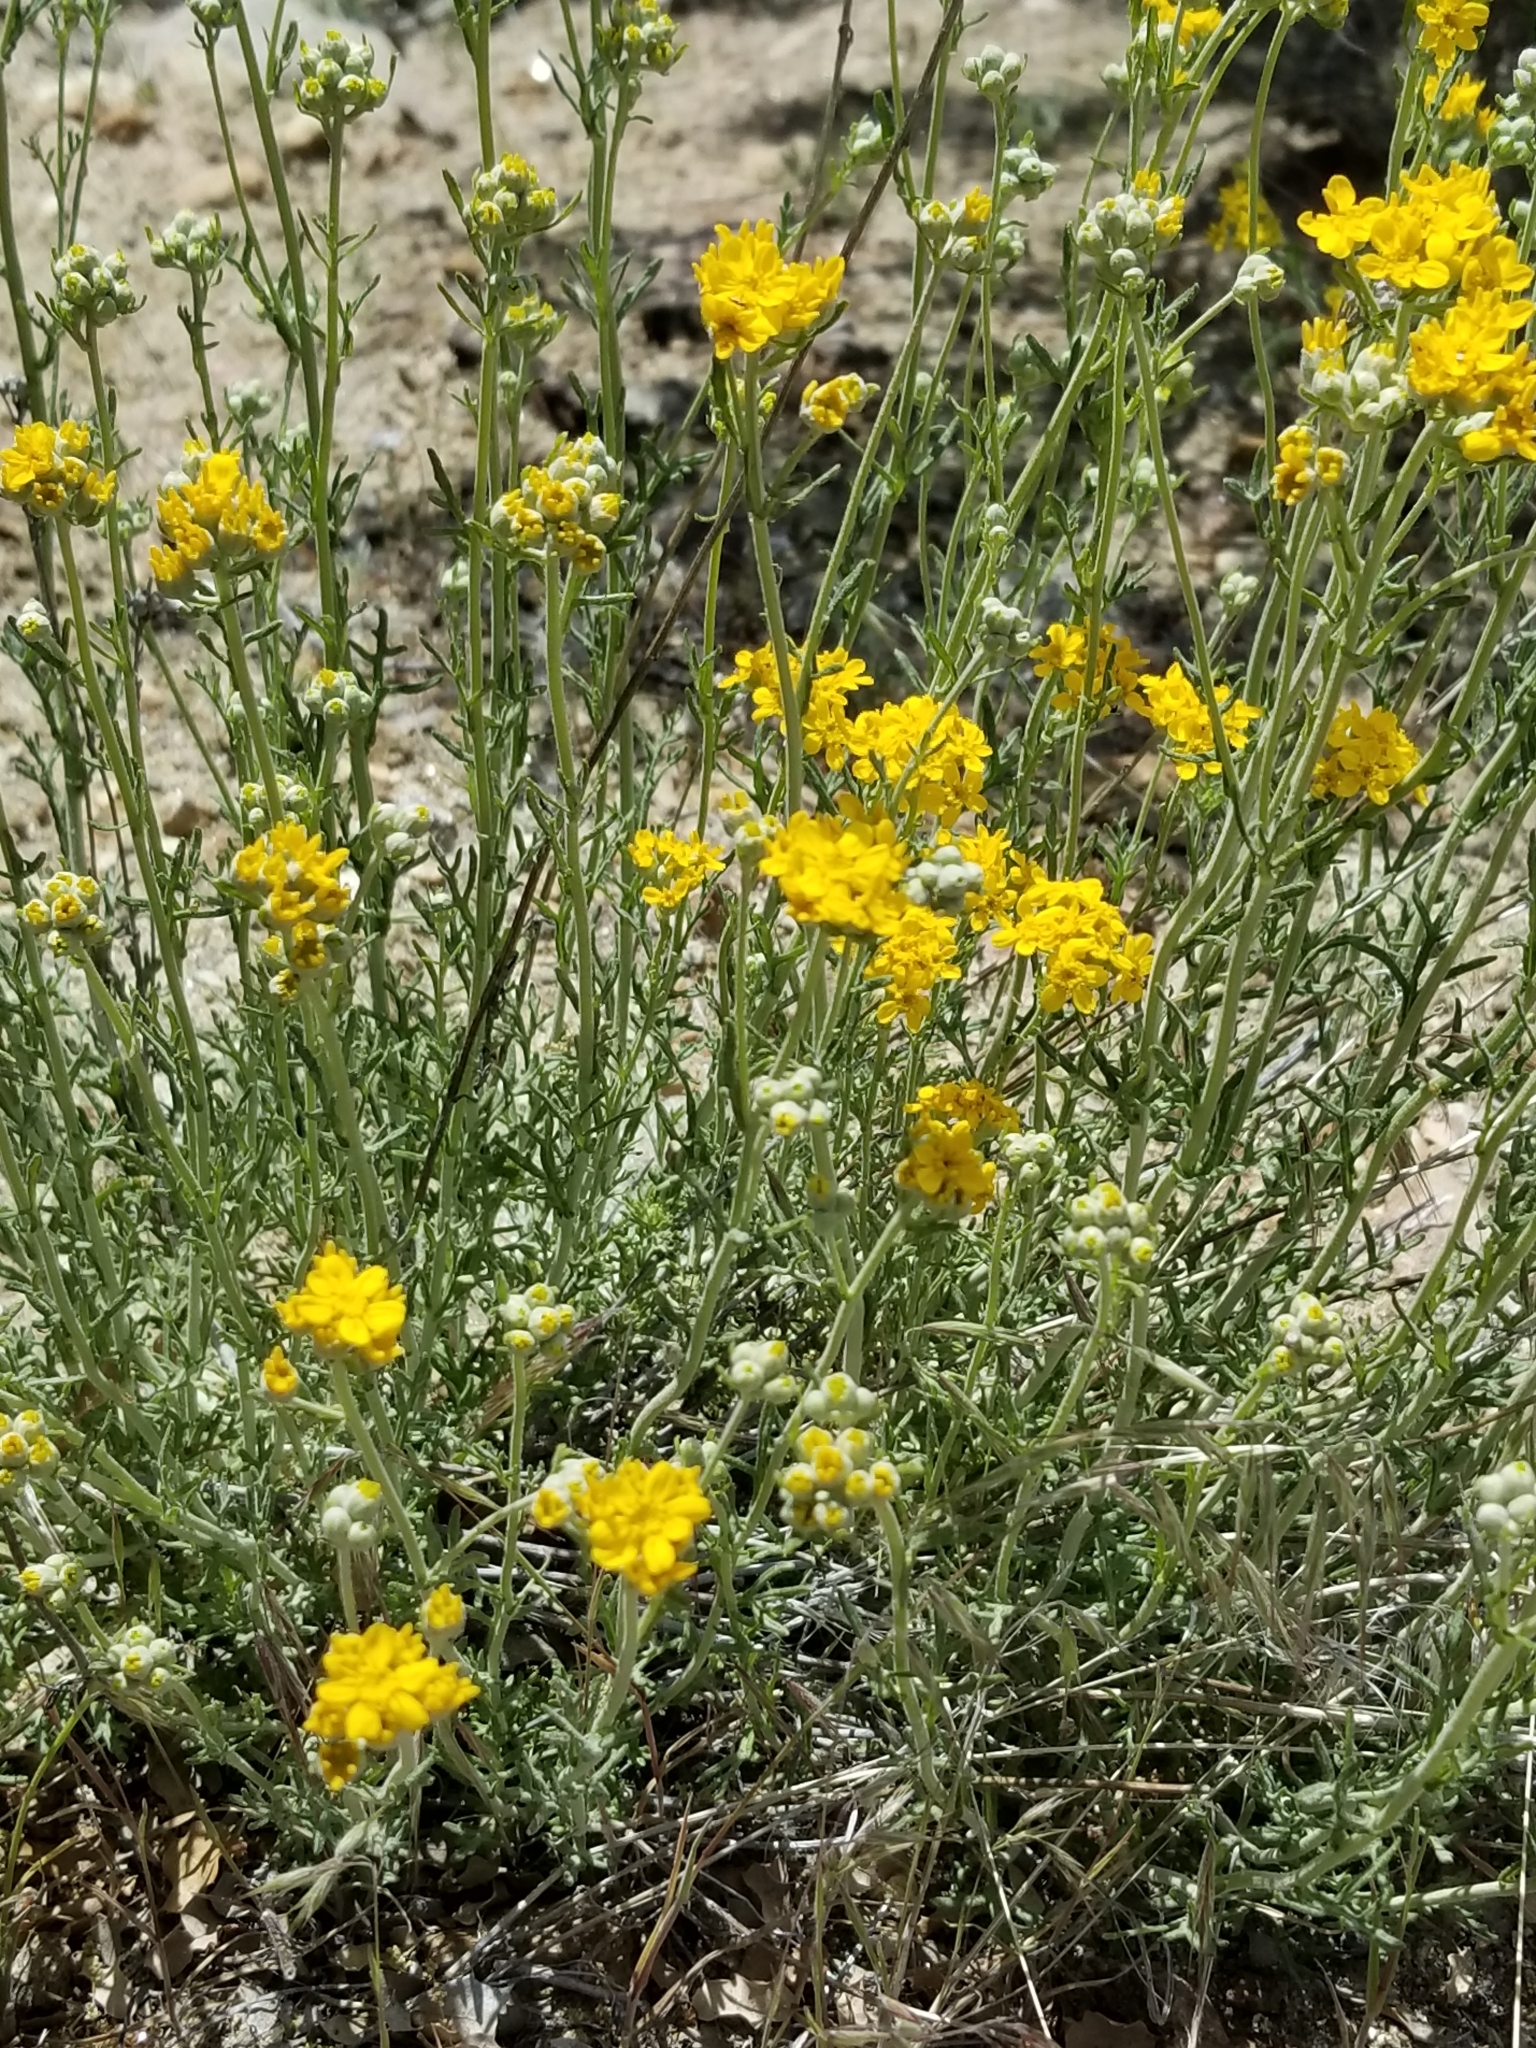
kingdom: Plantae
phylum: Tracheophyta
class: Magnoliopsida
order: Asterales
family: Asteraceae
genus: Eriophyllum
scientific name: Eriophyllum confertiflorum
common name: Golden-yarrow
